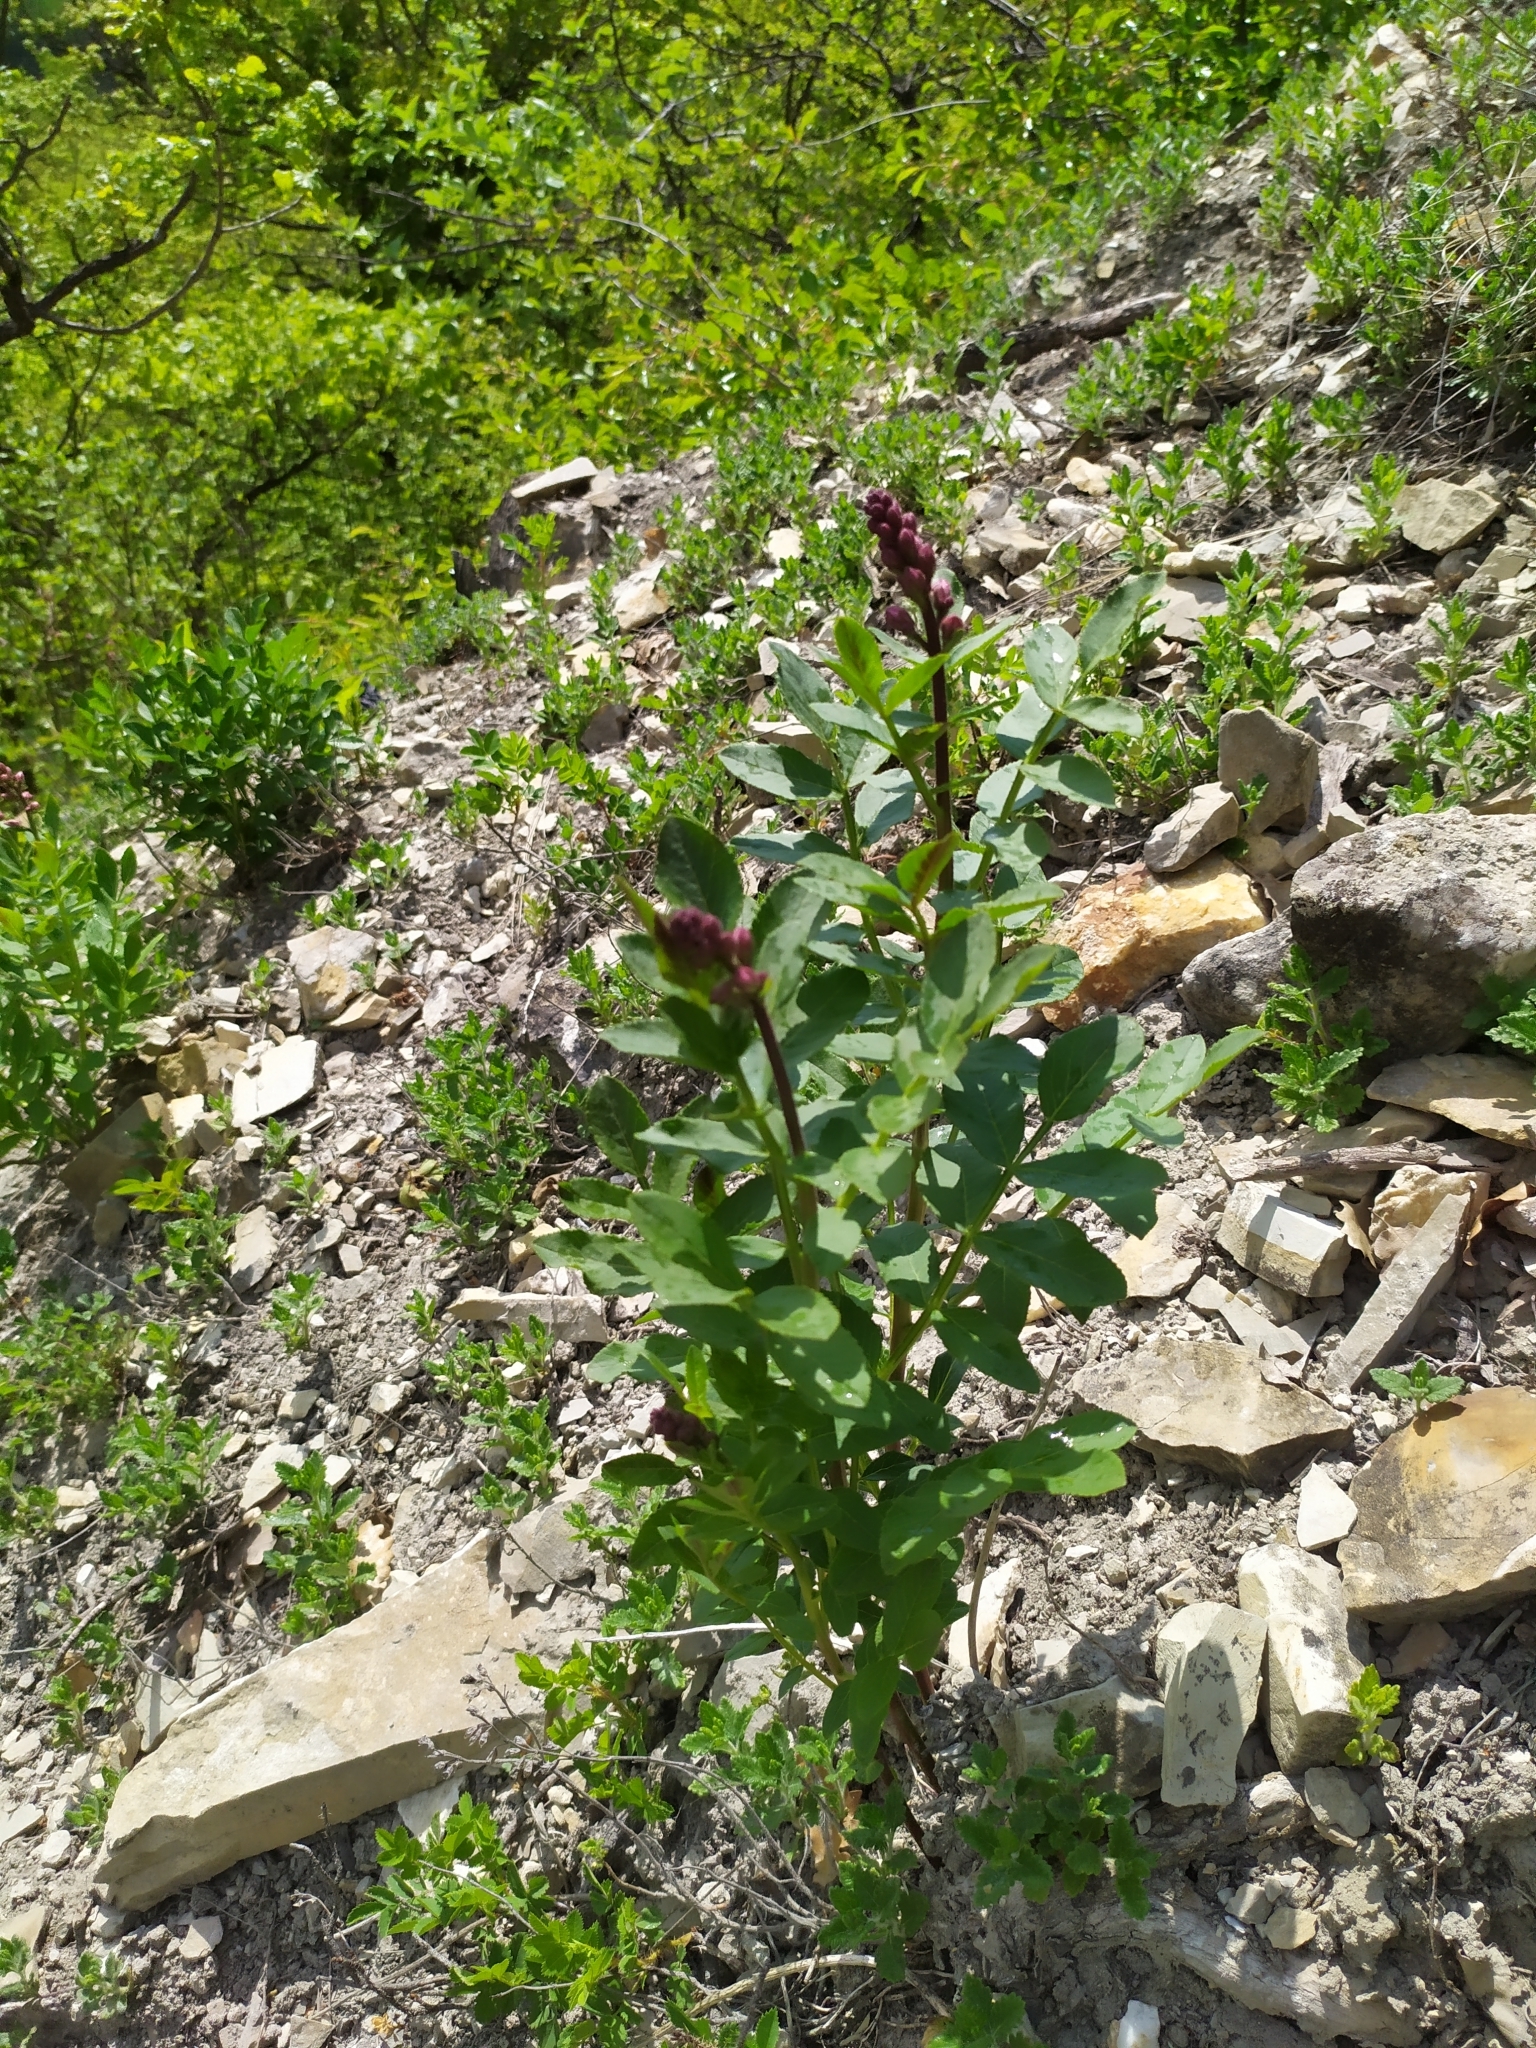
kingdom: Plantae
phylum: Tracheophyta
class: Magnoliopsida
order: Sapindales
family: Rutaceae
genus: Dictamnus
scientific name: Dictamnus albus
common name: Gasplant
